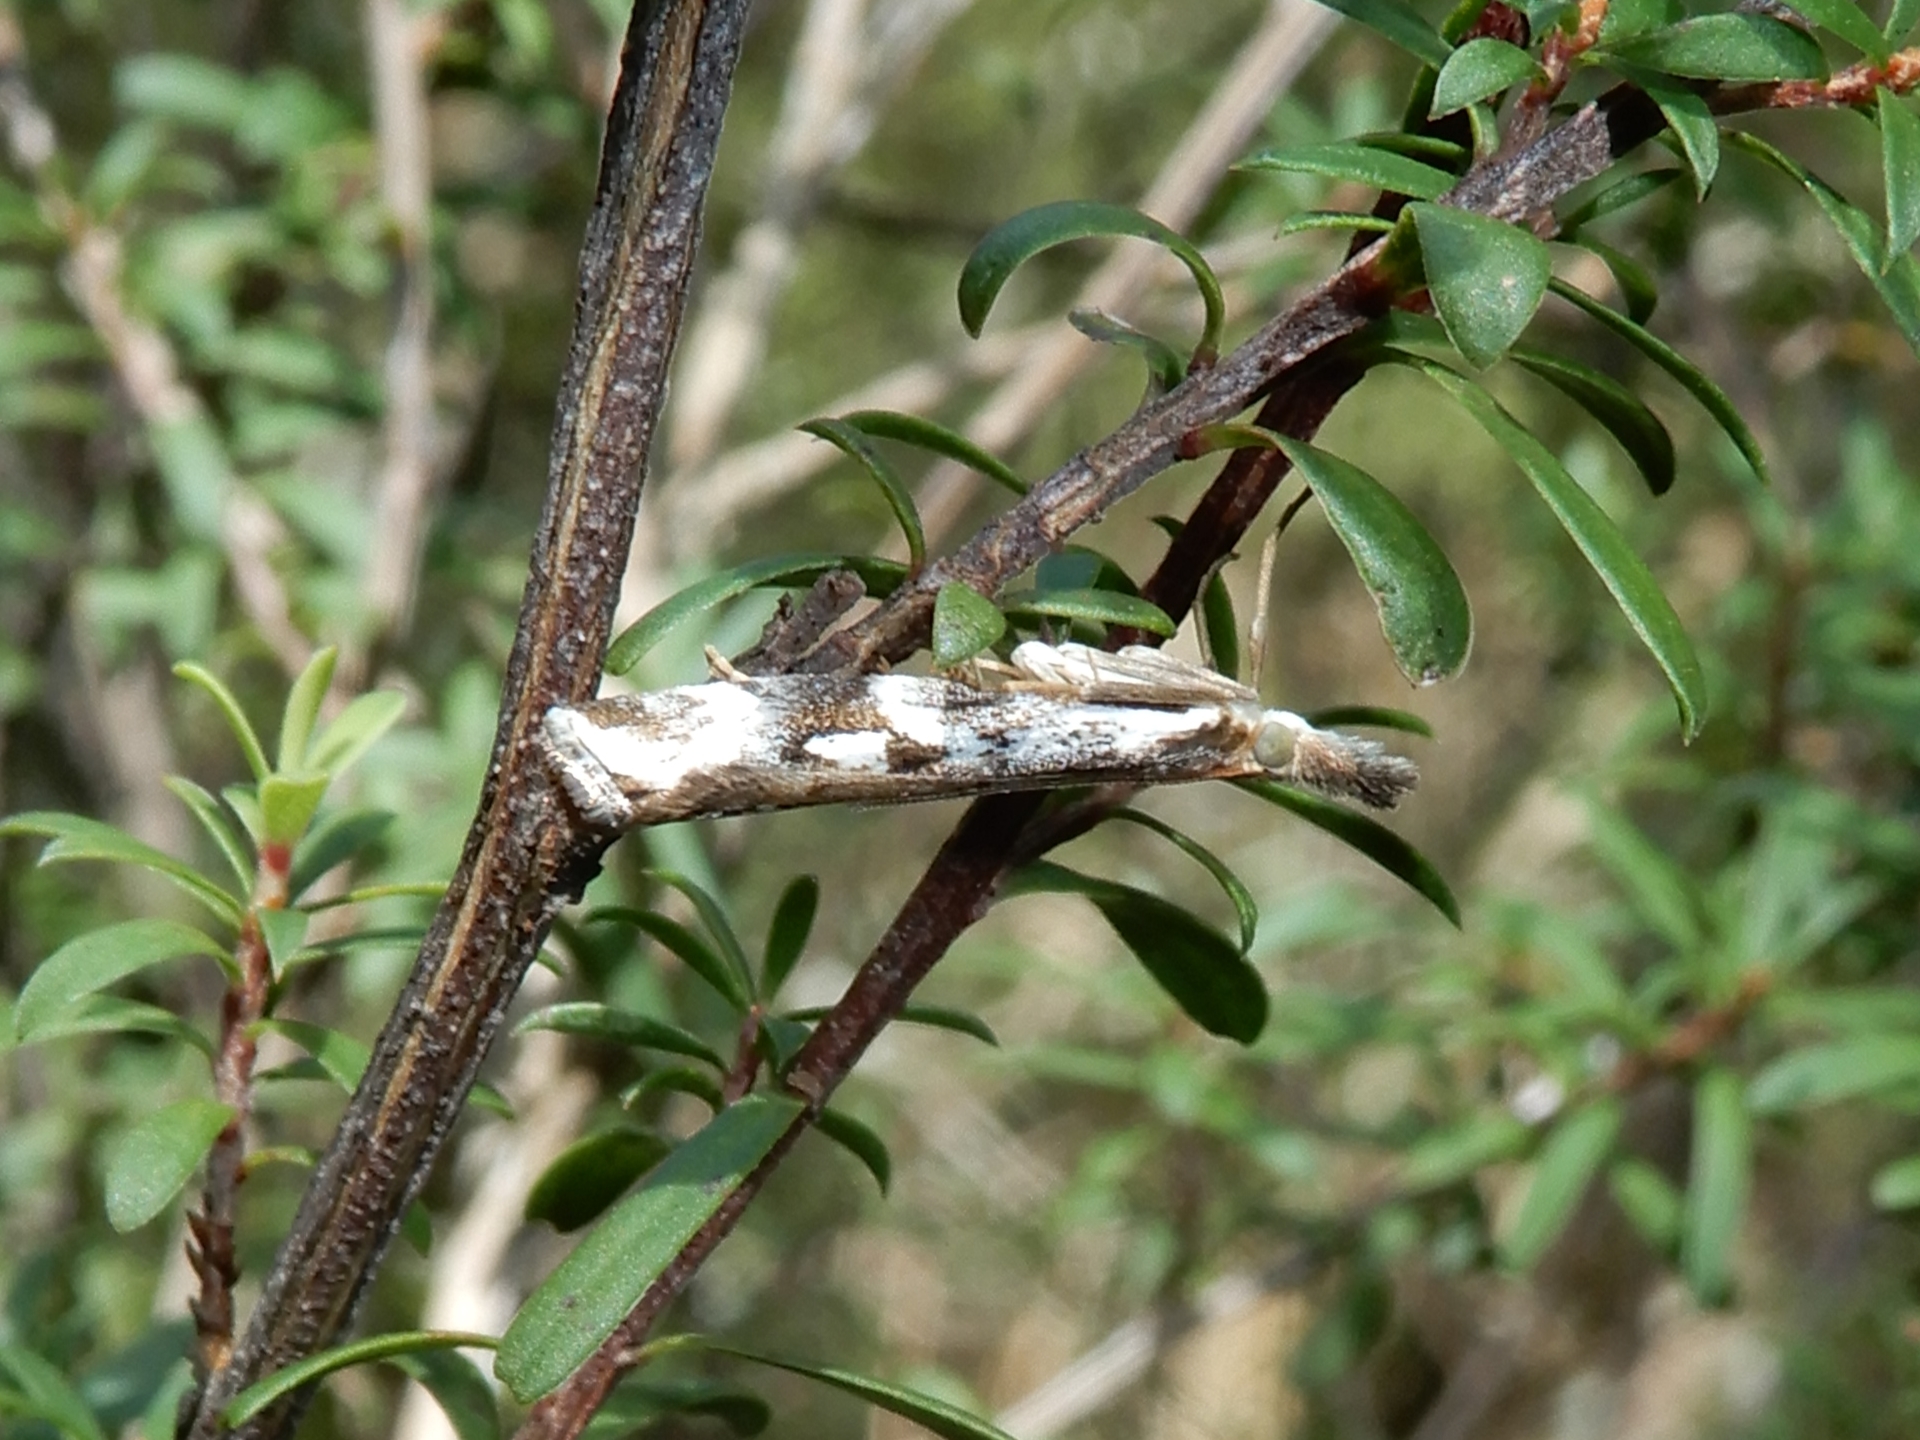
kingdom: Animalia
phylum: Arthropoda
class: Insecta
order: Lepidoptera
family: Crambidae
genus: Orocrambus
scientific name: Orocrambus vulgaris
